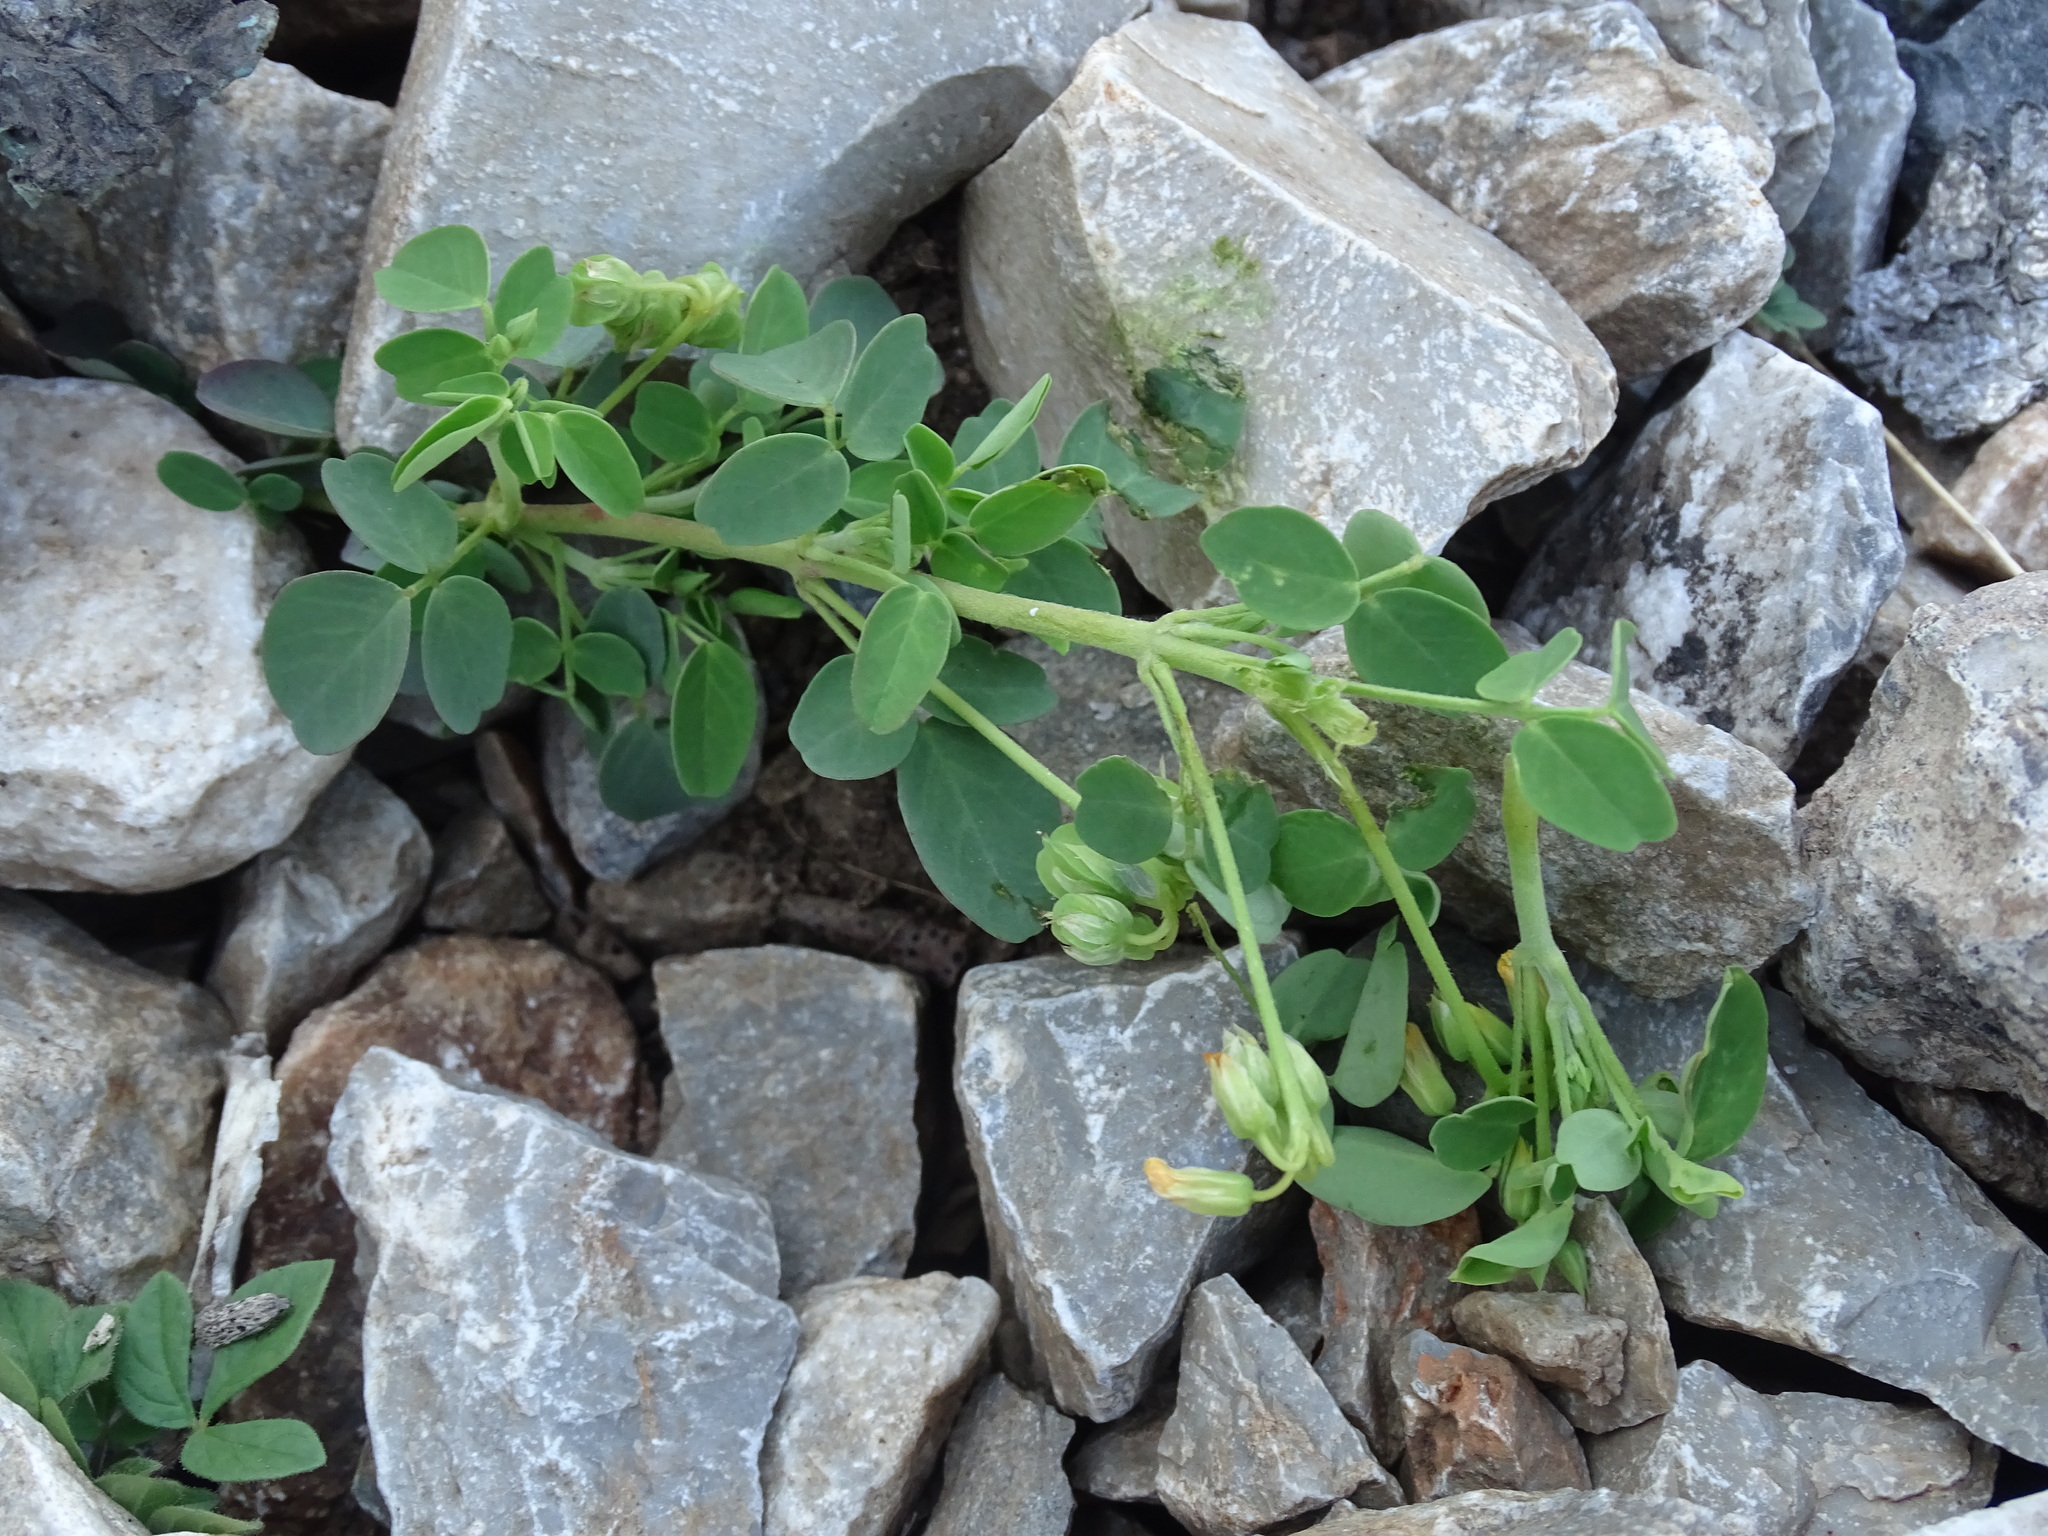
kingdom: Plantae
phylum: Tracheophyta
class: Magnoliopsida
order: Oxalidales
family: Oxalidaceae
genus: Oxalis
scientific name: Oxalis frutescens
